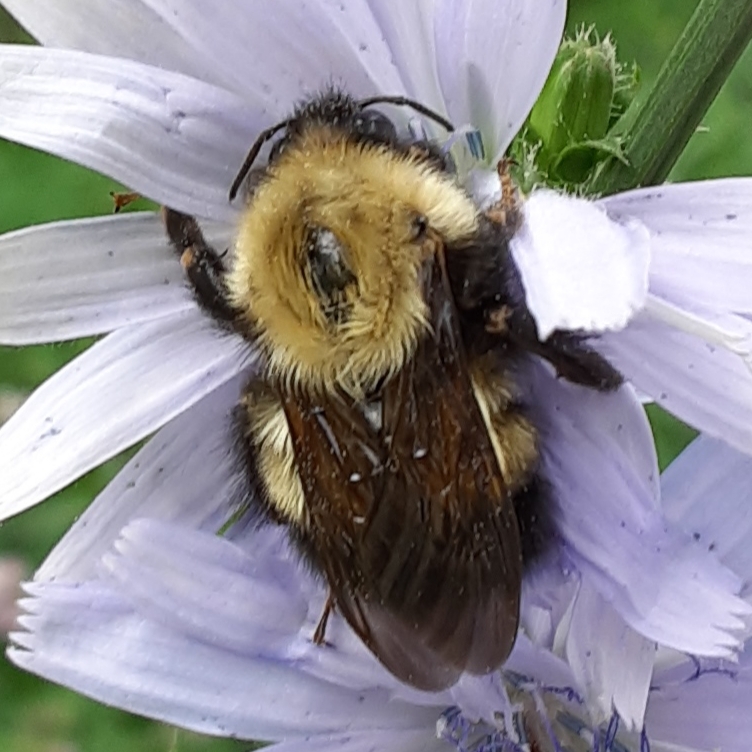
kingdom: Animalia
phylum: Arthropoda
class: Insecta
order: Hymenoptera
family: Apidae
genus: Bombus
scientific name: Bombus perplexus
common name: Confusing bumble bee
